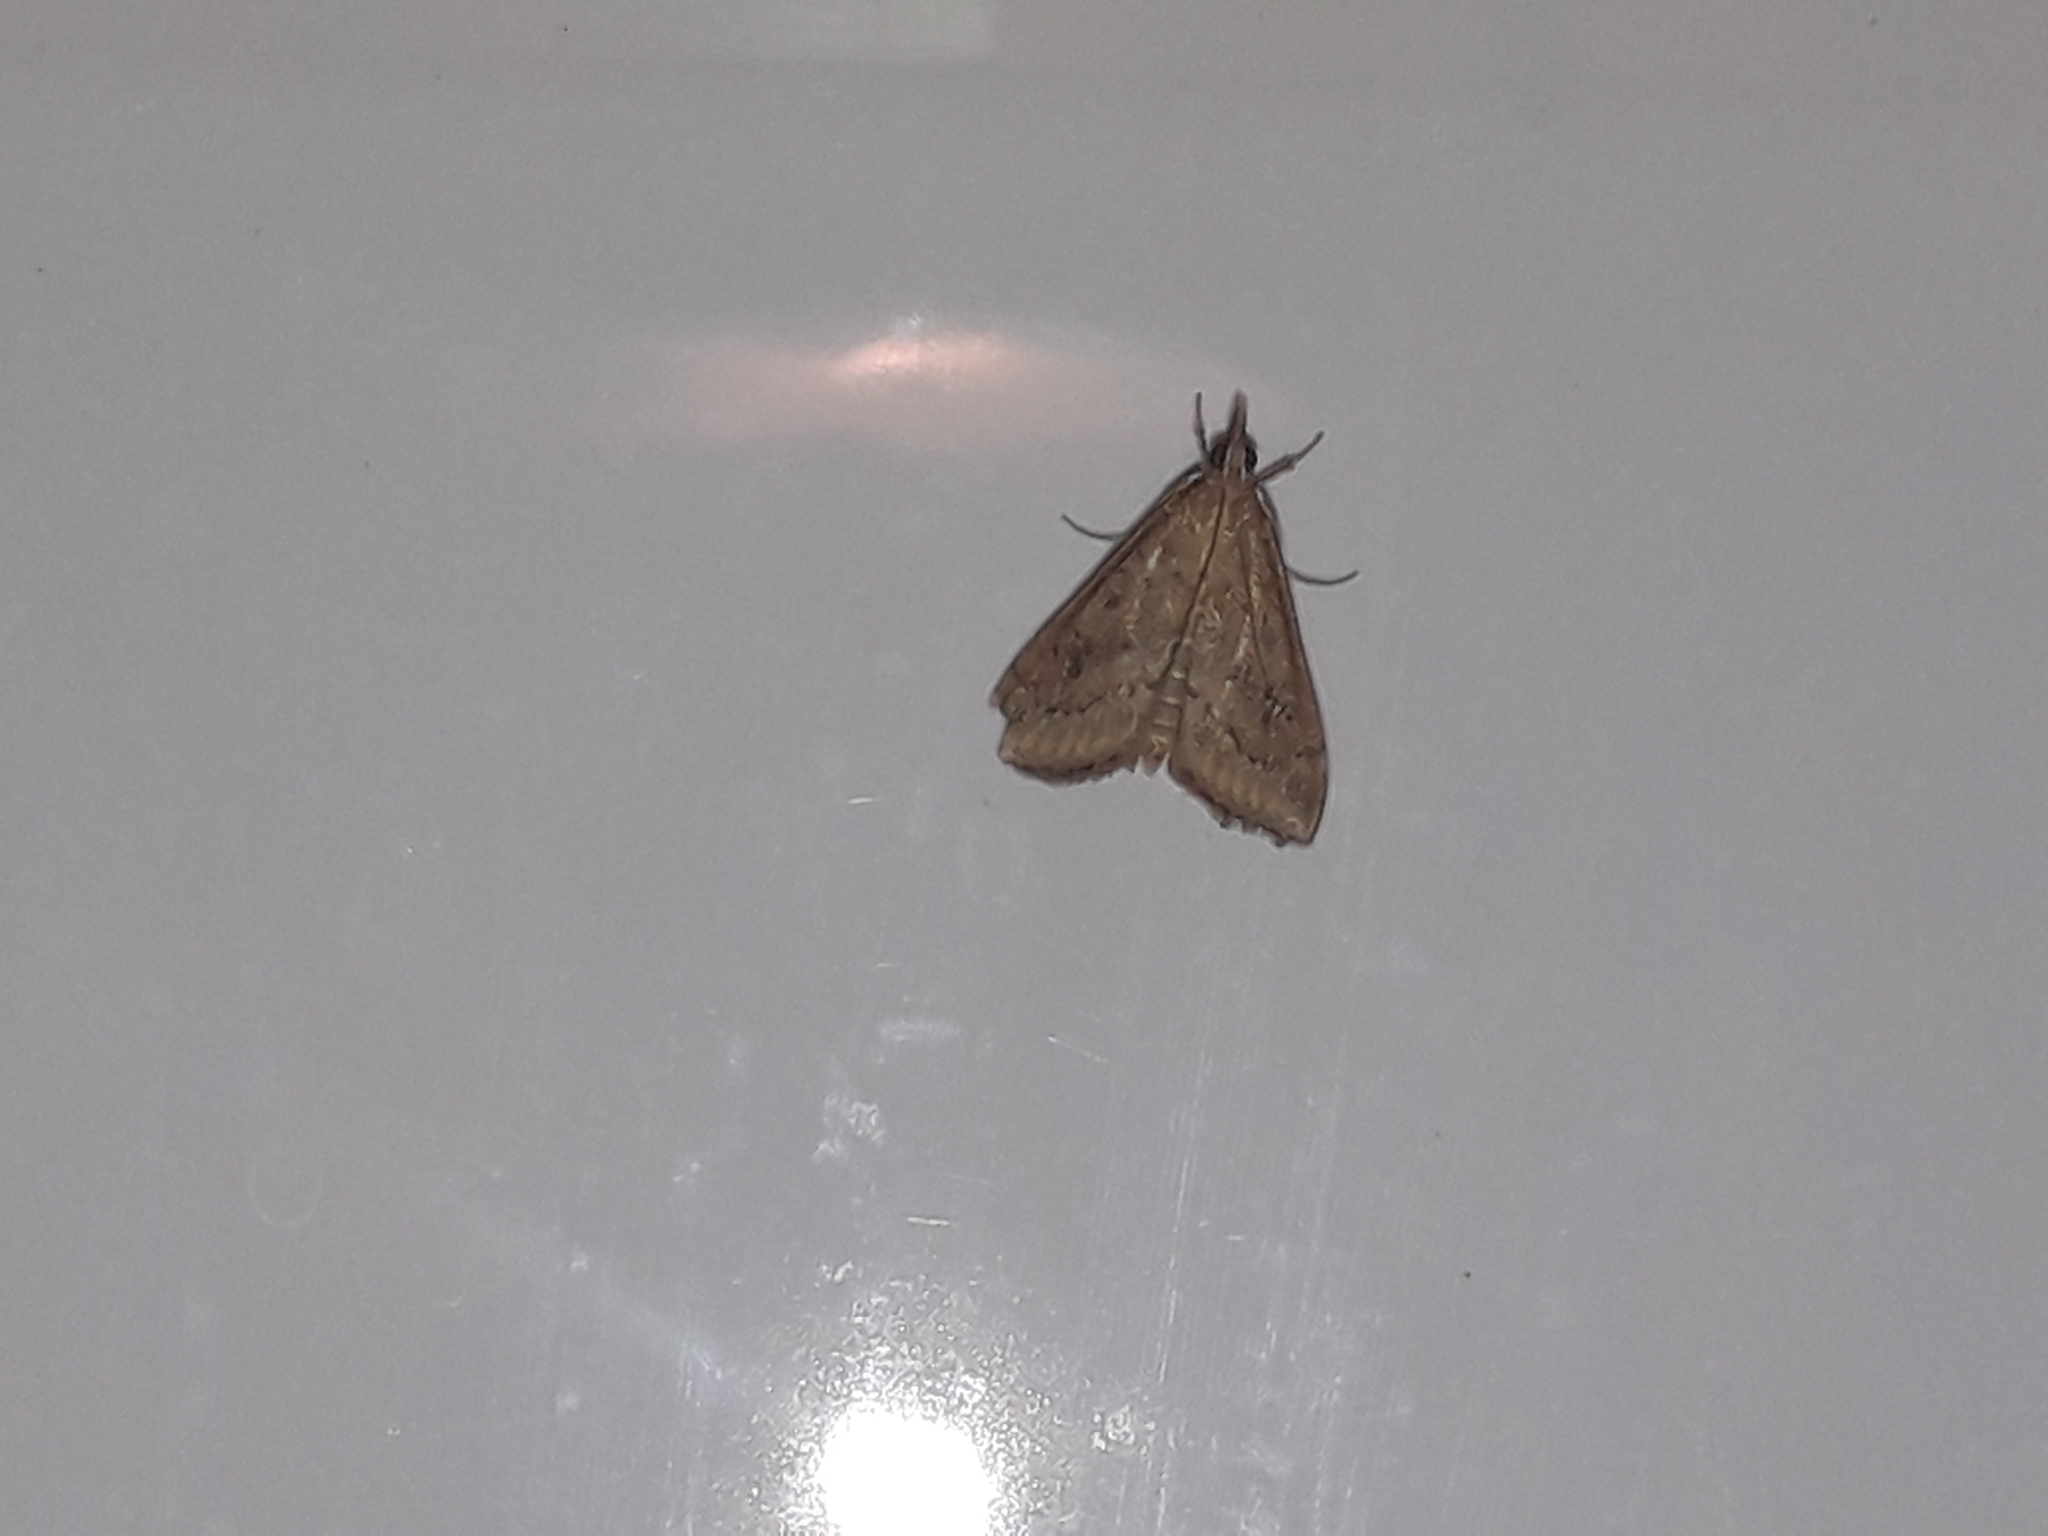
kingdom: Animalia
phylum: Arthropoda
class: Insecta
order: Lepidoptera
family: Crambidae
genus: Udea
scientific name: Udea ferrugalis
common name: Rusty dot
